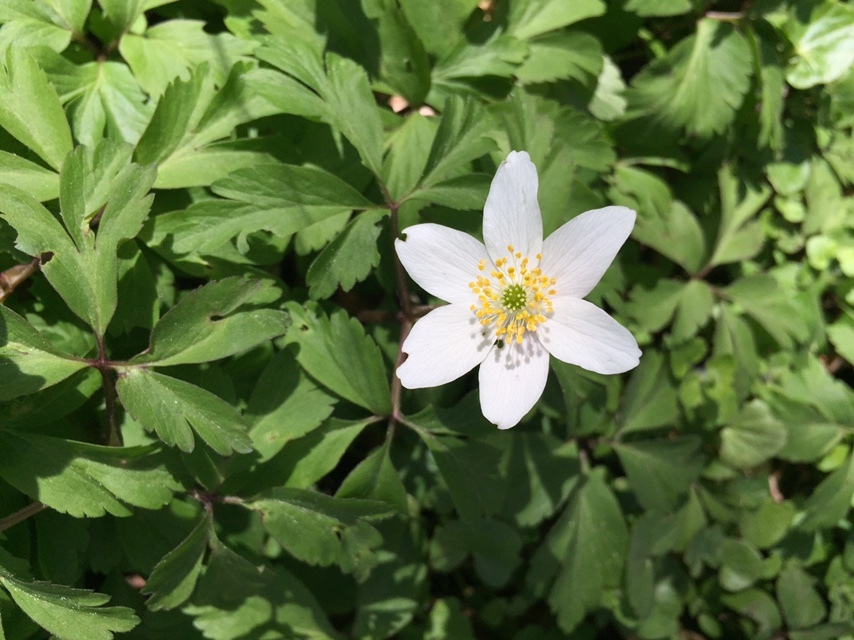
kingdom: Plantae
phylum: Tracheophyta
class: Magnoliopsida
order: Ranunculales
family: Ranunculaceae
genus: Anemone
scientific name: Anemone nemorosa
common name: Wood anemone
